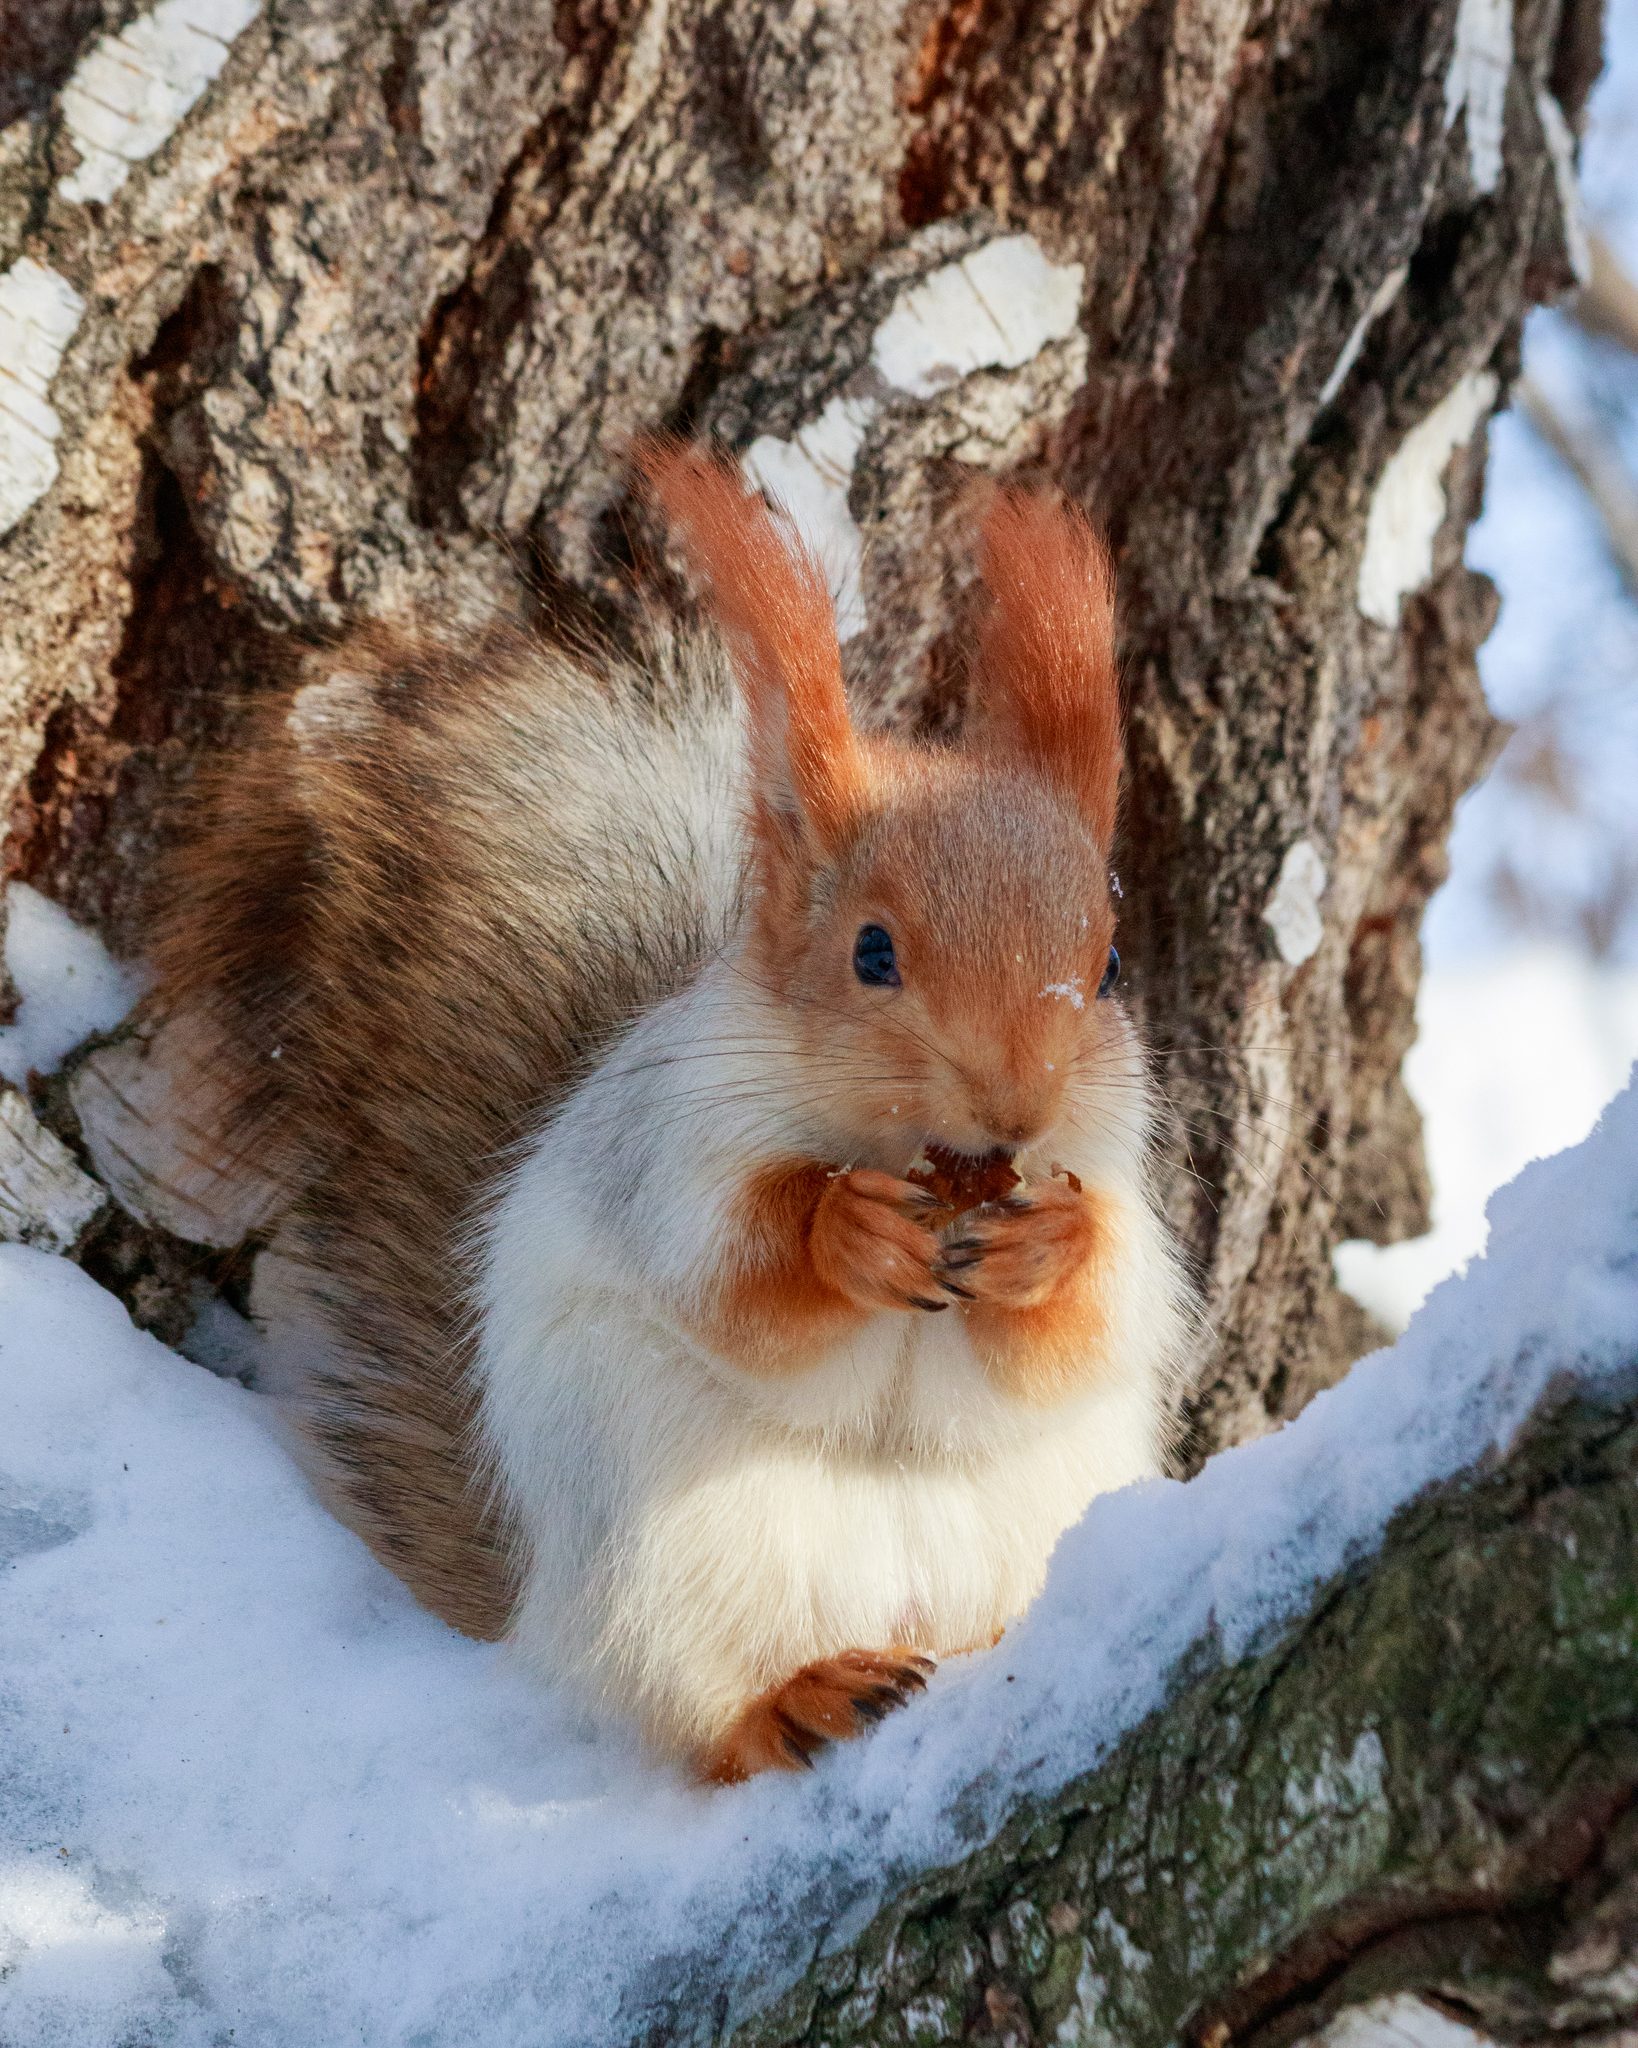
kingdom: Animalia
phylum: Chordata
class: Mammalia
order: Rodentia
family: Sciuridae
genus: Sciurus
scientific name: Sciurus vulgaris
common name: Eurasian red squirrel
